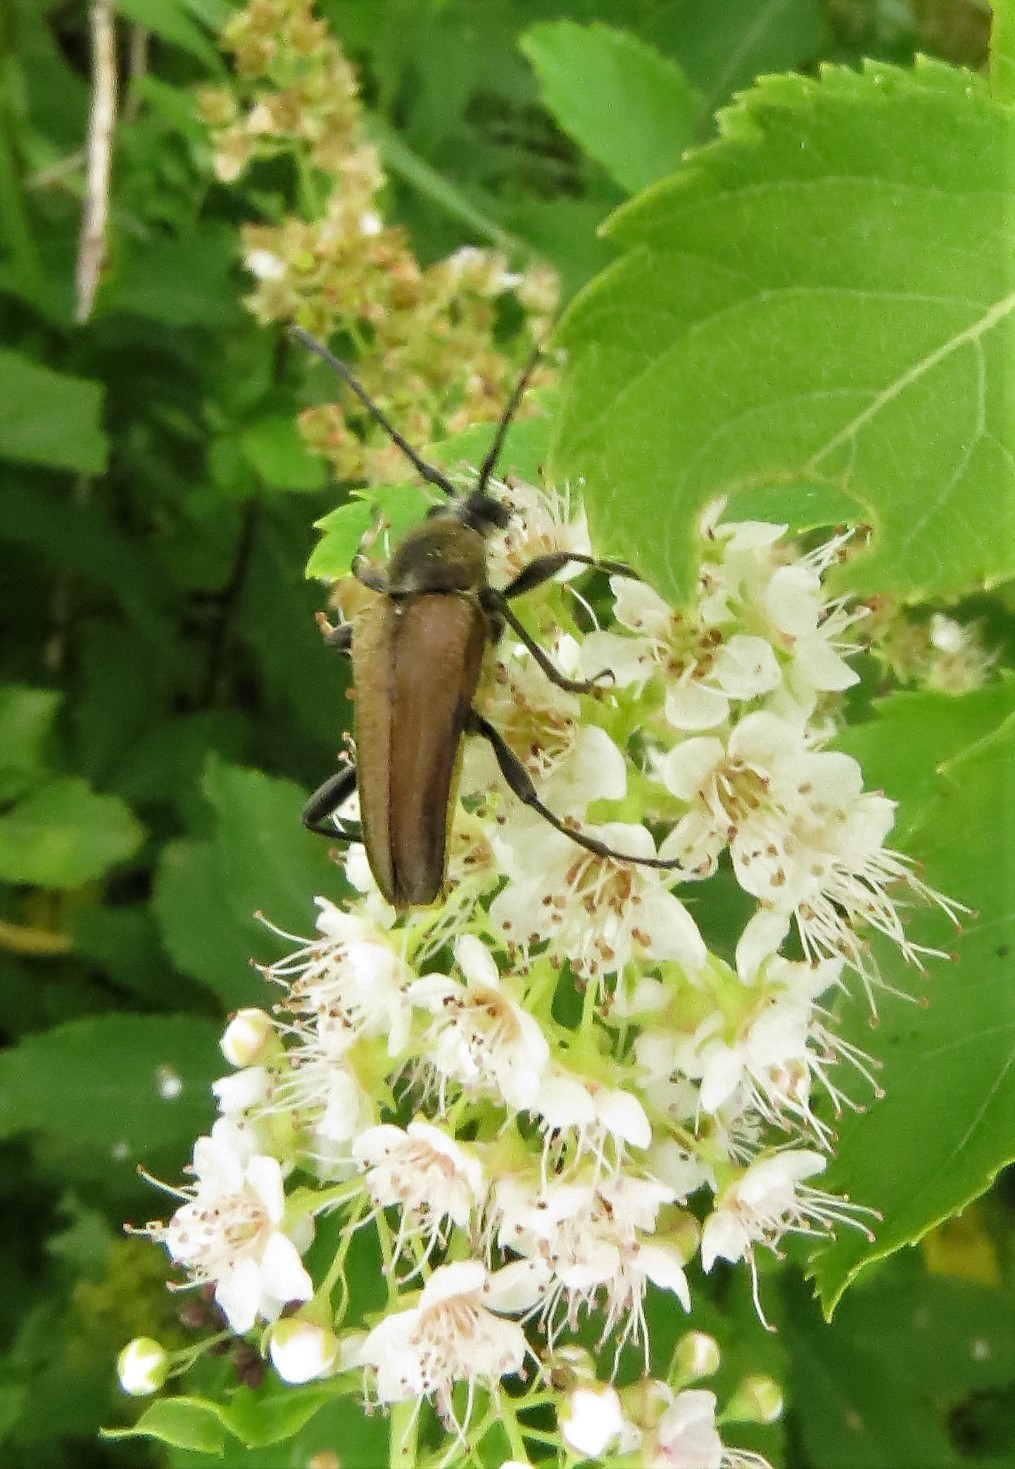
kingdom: Animalia
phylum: Arthropoda
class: Insecta
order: Coleoptera
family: Cerambycidae
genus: Cosmosalia
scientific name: Cosmosalia chrysocoma
